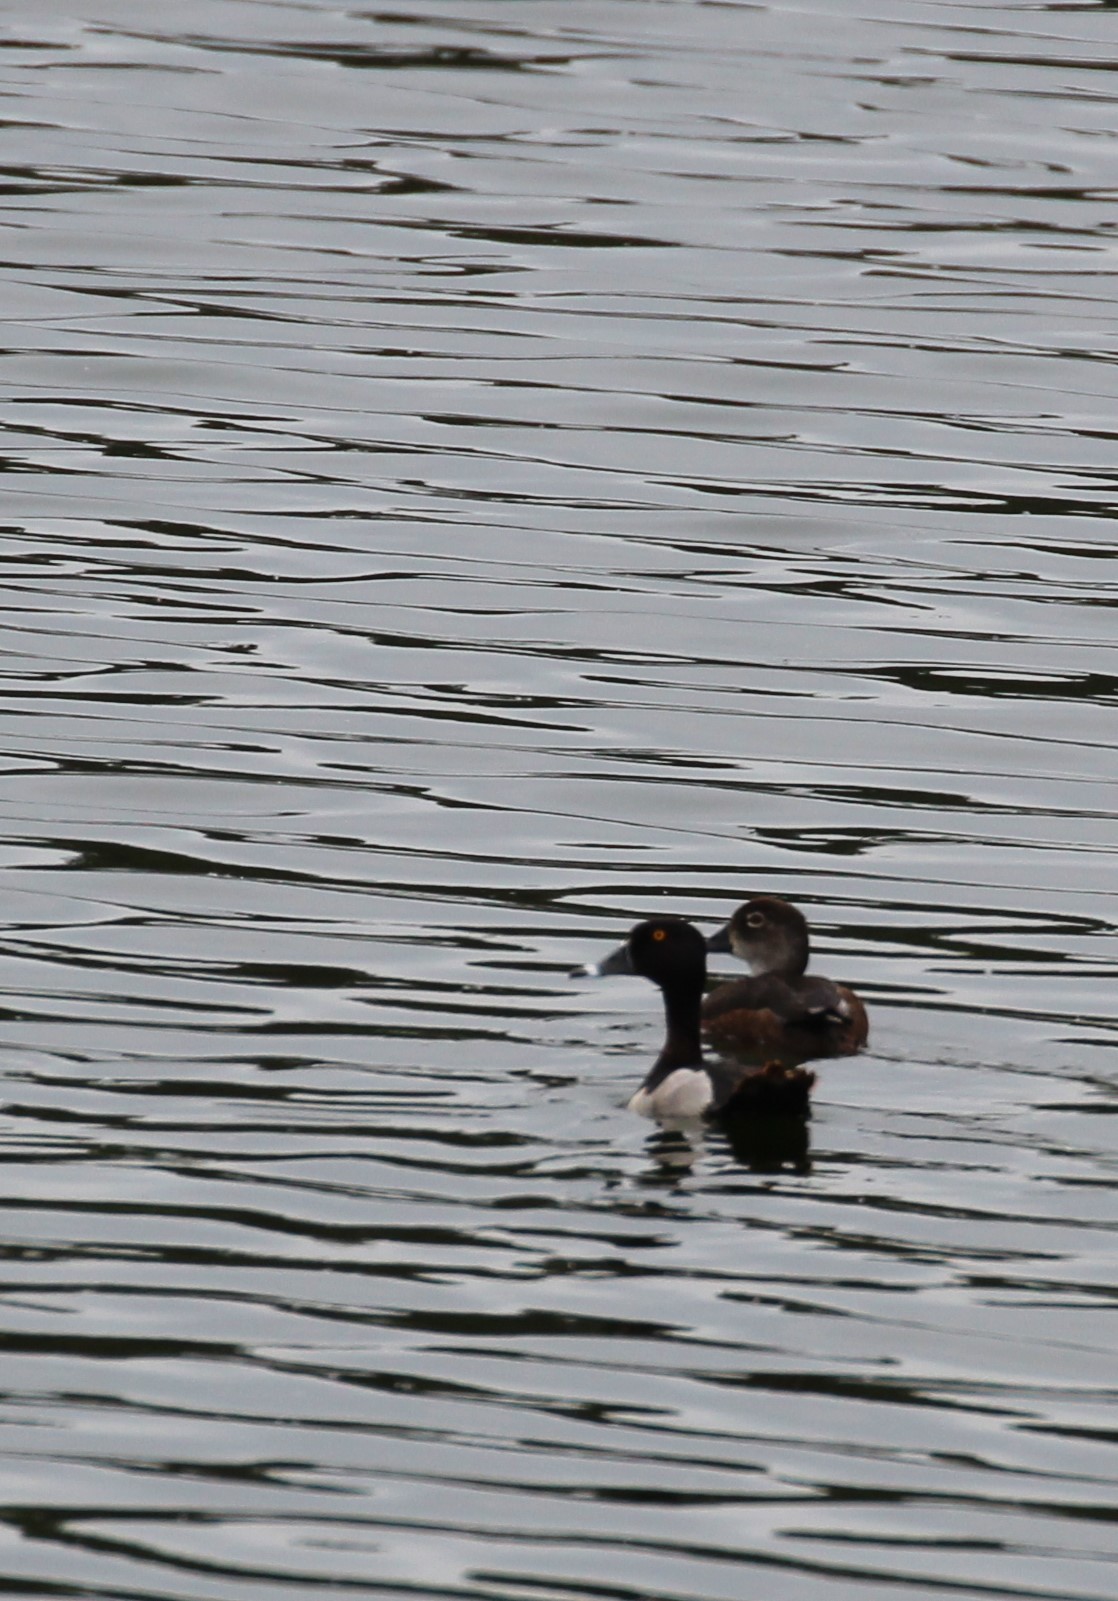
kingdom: Animalia
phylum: Chordata
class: Aves
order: Anseriformes
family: Anatidae
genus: Aythya
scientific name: Aythya collaris
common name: Ring-necked duck
